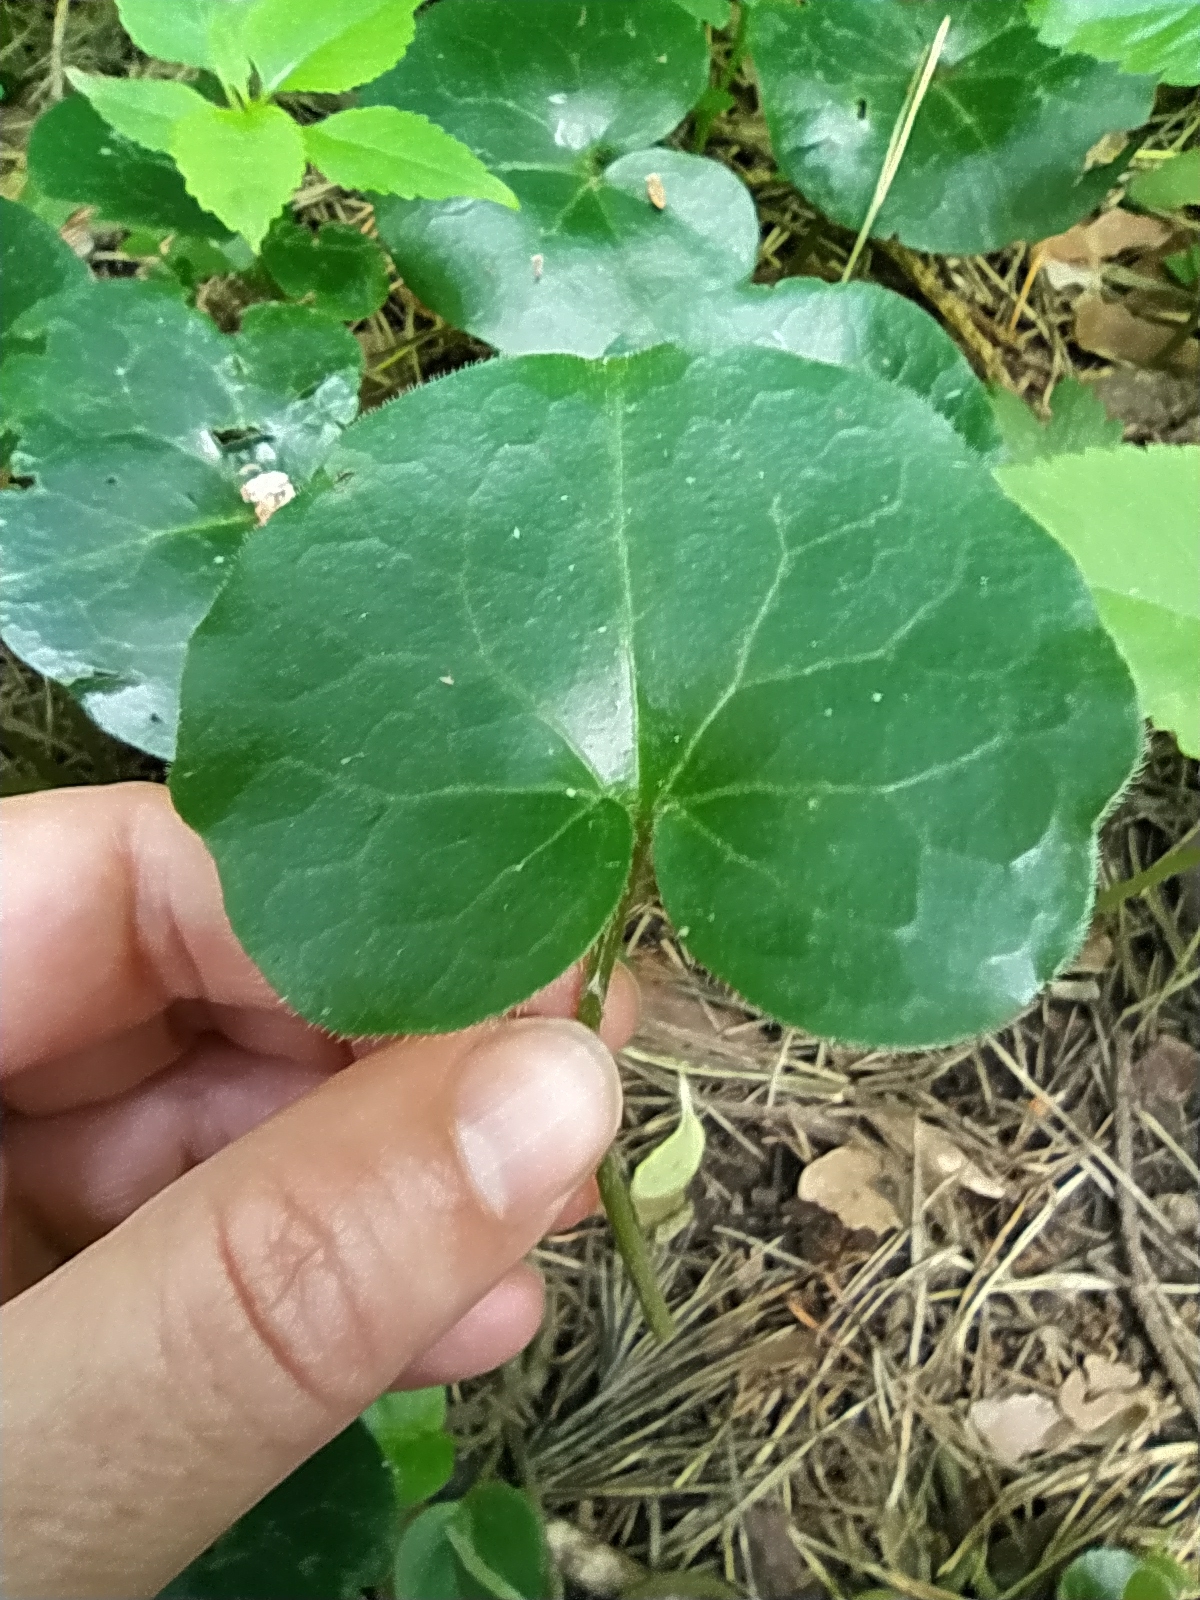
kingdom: Plantae
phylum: Tracheophyta
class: Magnoliopsida
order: Piperales
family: Aristolochiaceae
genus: Asarum
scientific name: Asarum europaeum
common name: Asarabacca
